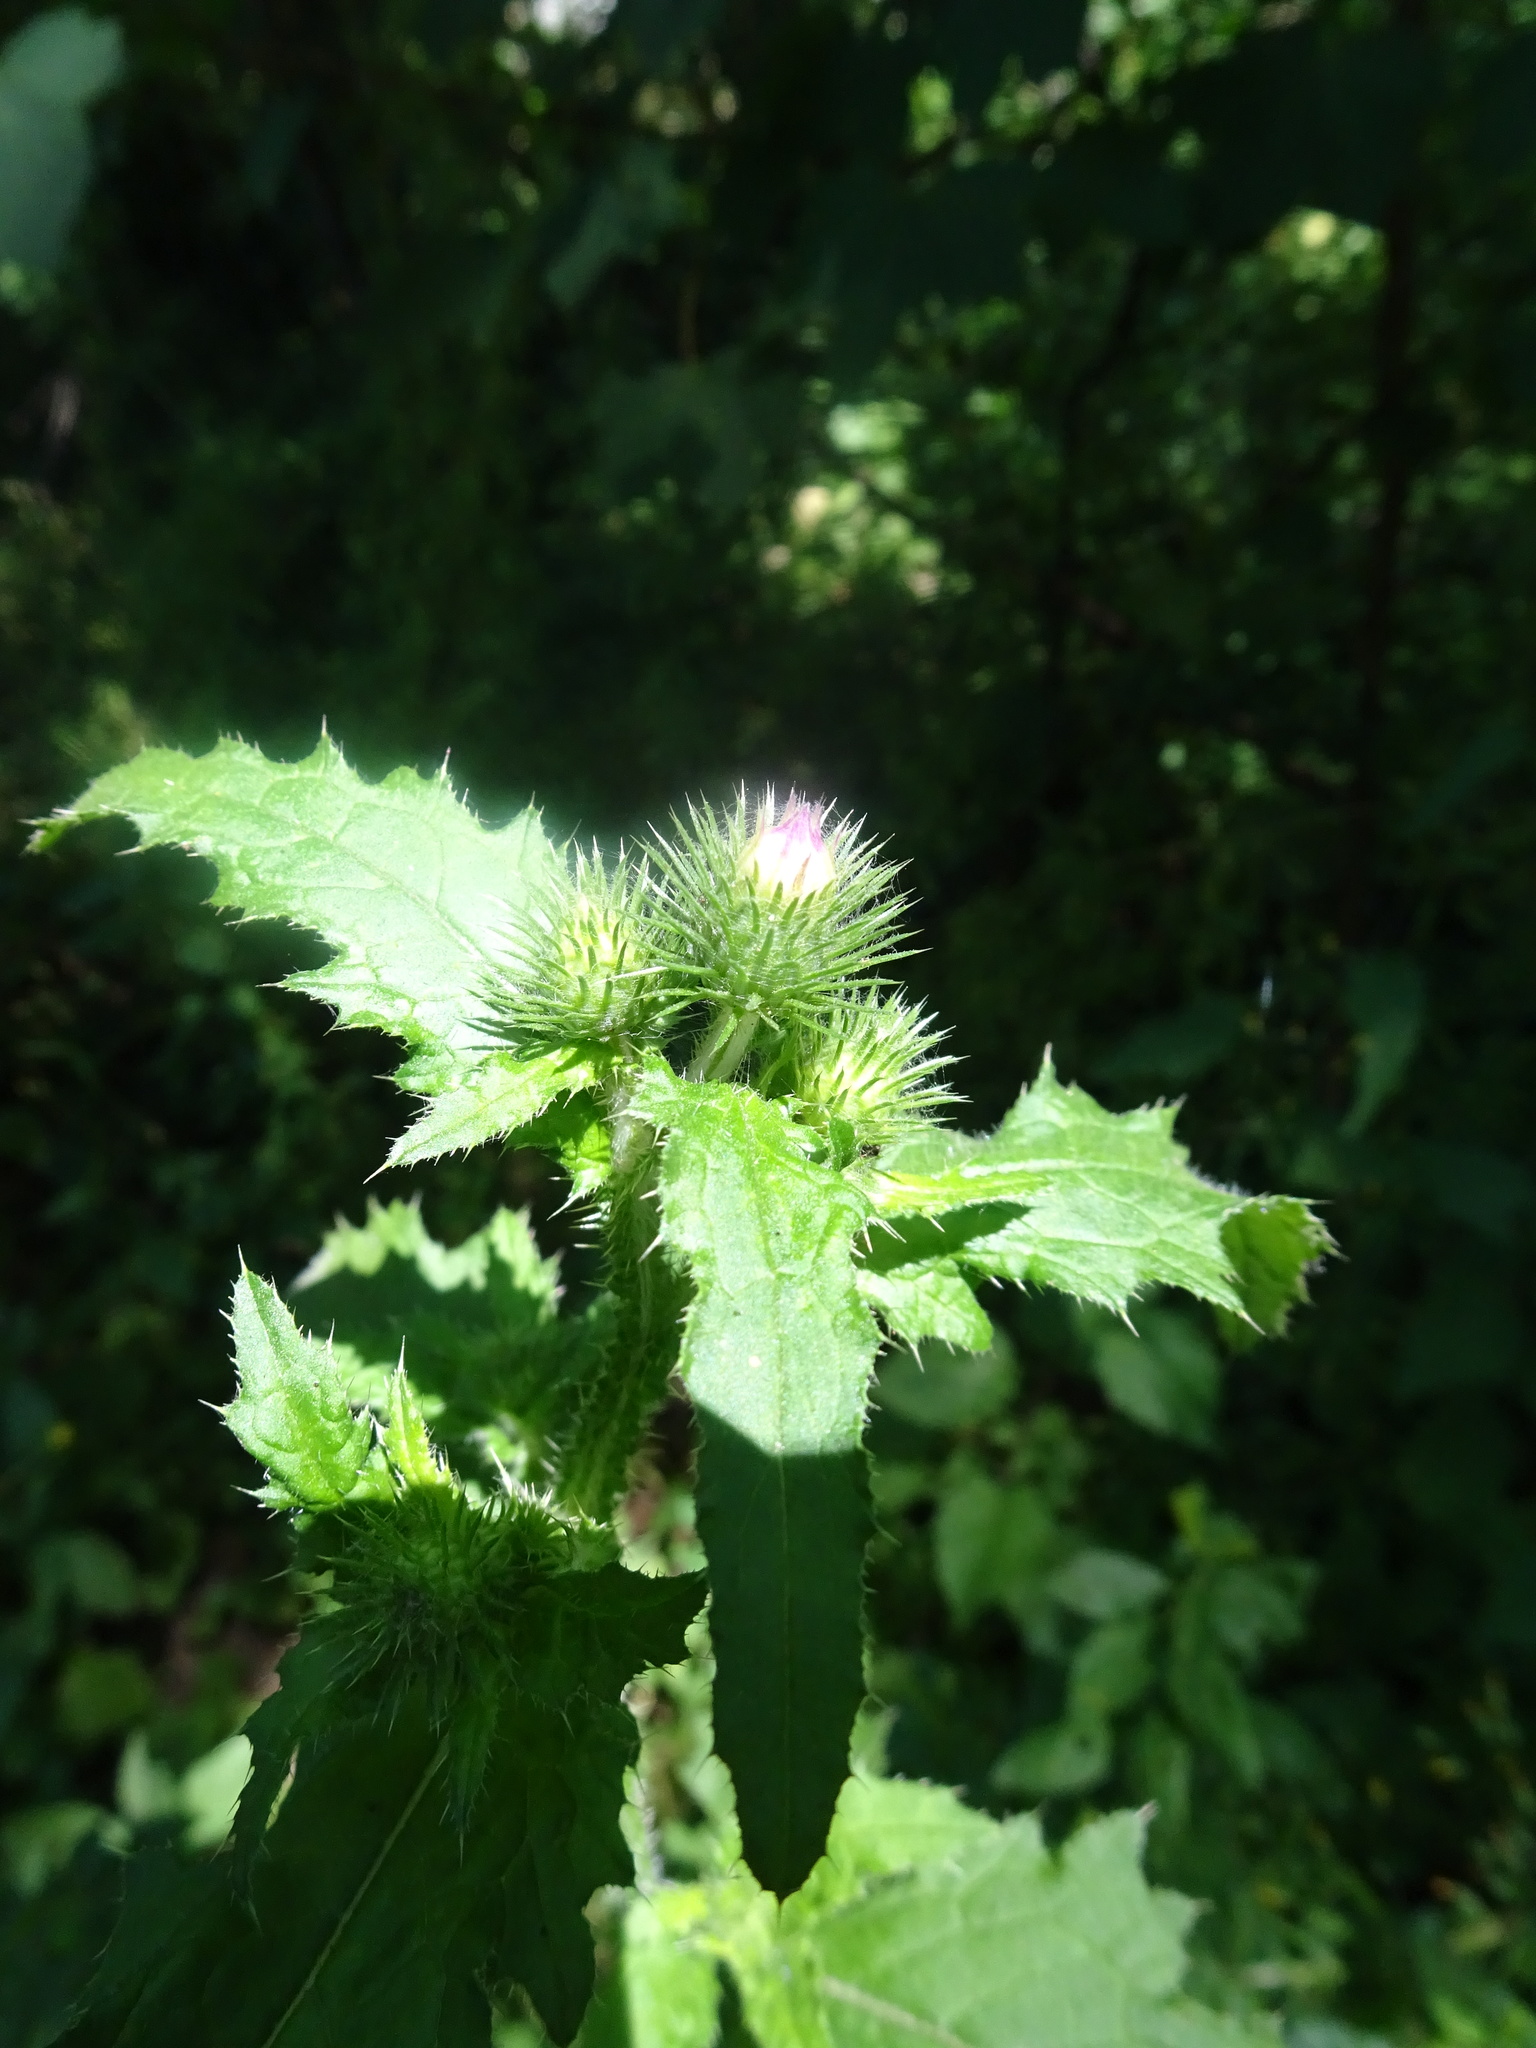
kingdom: Plantae
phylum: Tracheophyta
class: Magnoliopsida
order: Asterales
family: Asteraceae
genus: Carduus
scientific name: Carduus crispus
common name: Welted thistle
